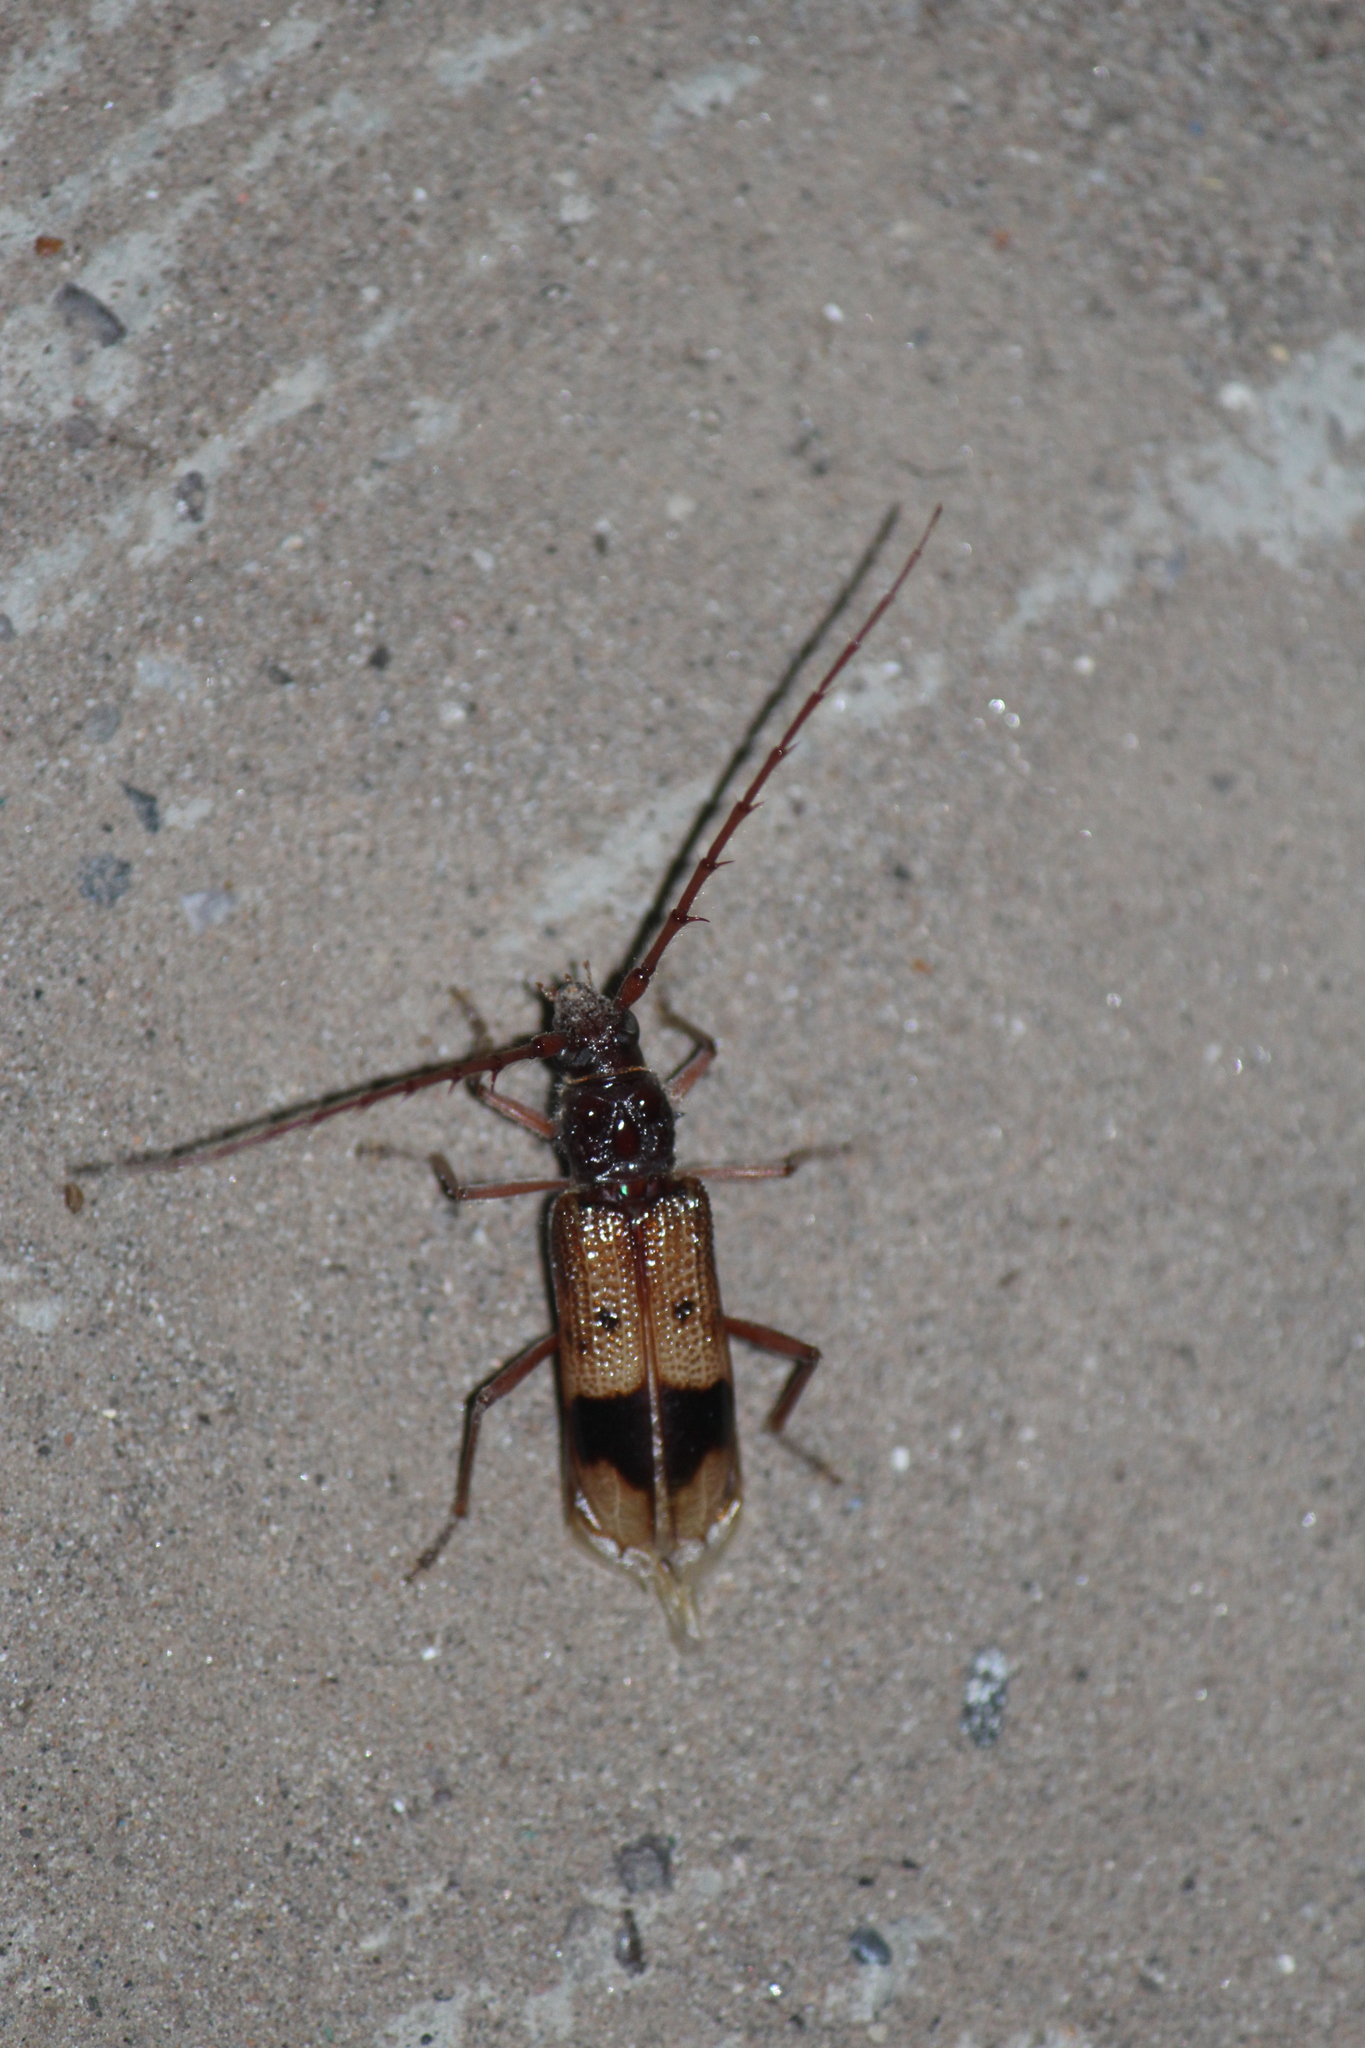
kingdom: Animalia
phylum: Arthropoda
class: Insecta
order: Coleoptera
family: Cerambycidae
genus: Phoracantha
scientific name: Phoracantha recurva
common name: Eucalyptus longhorned borer
